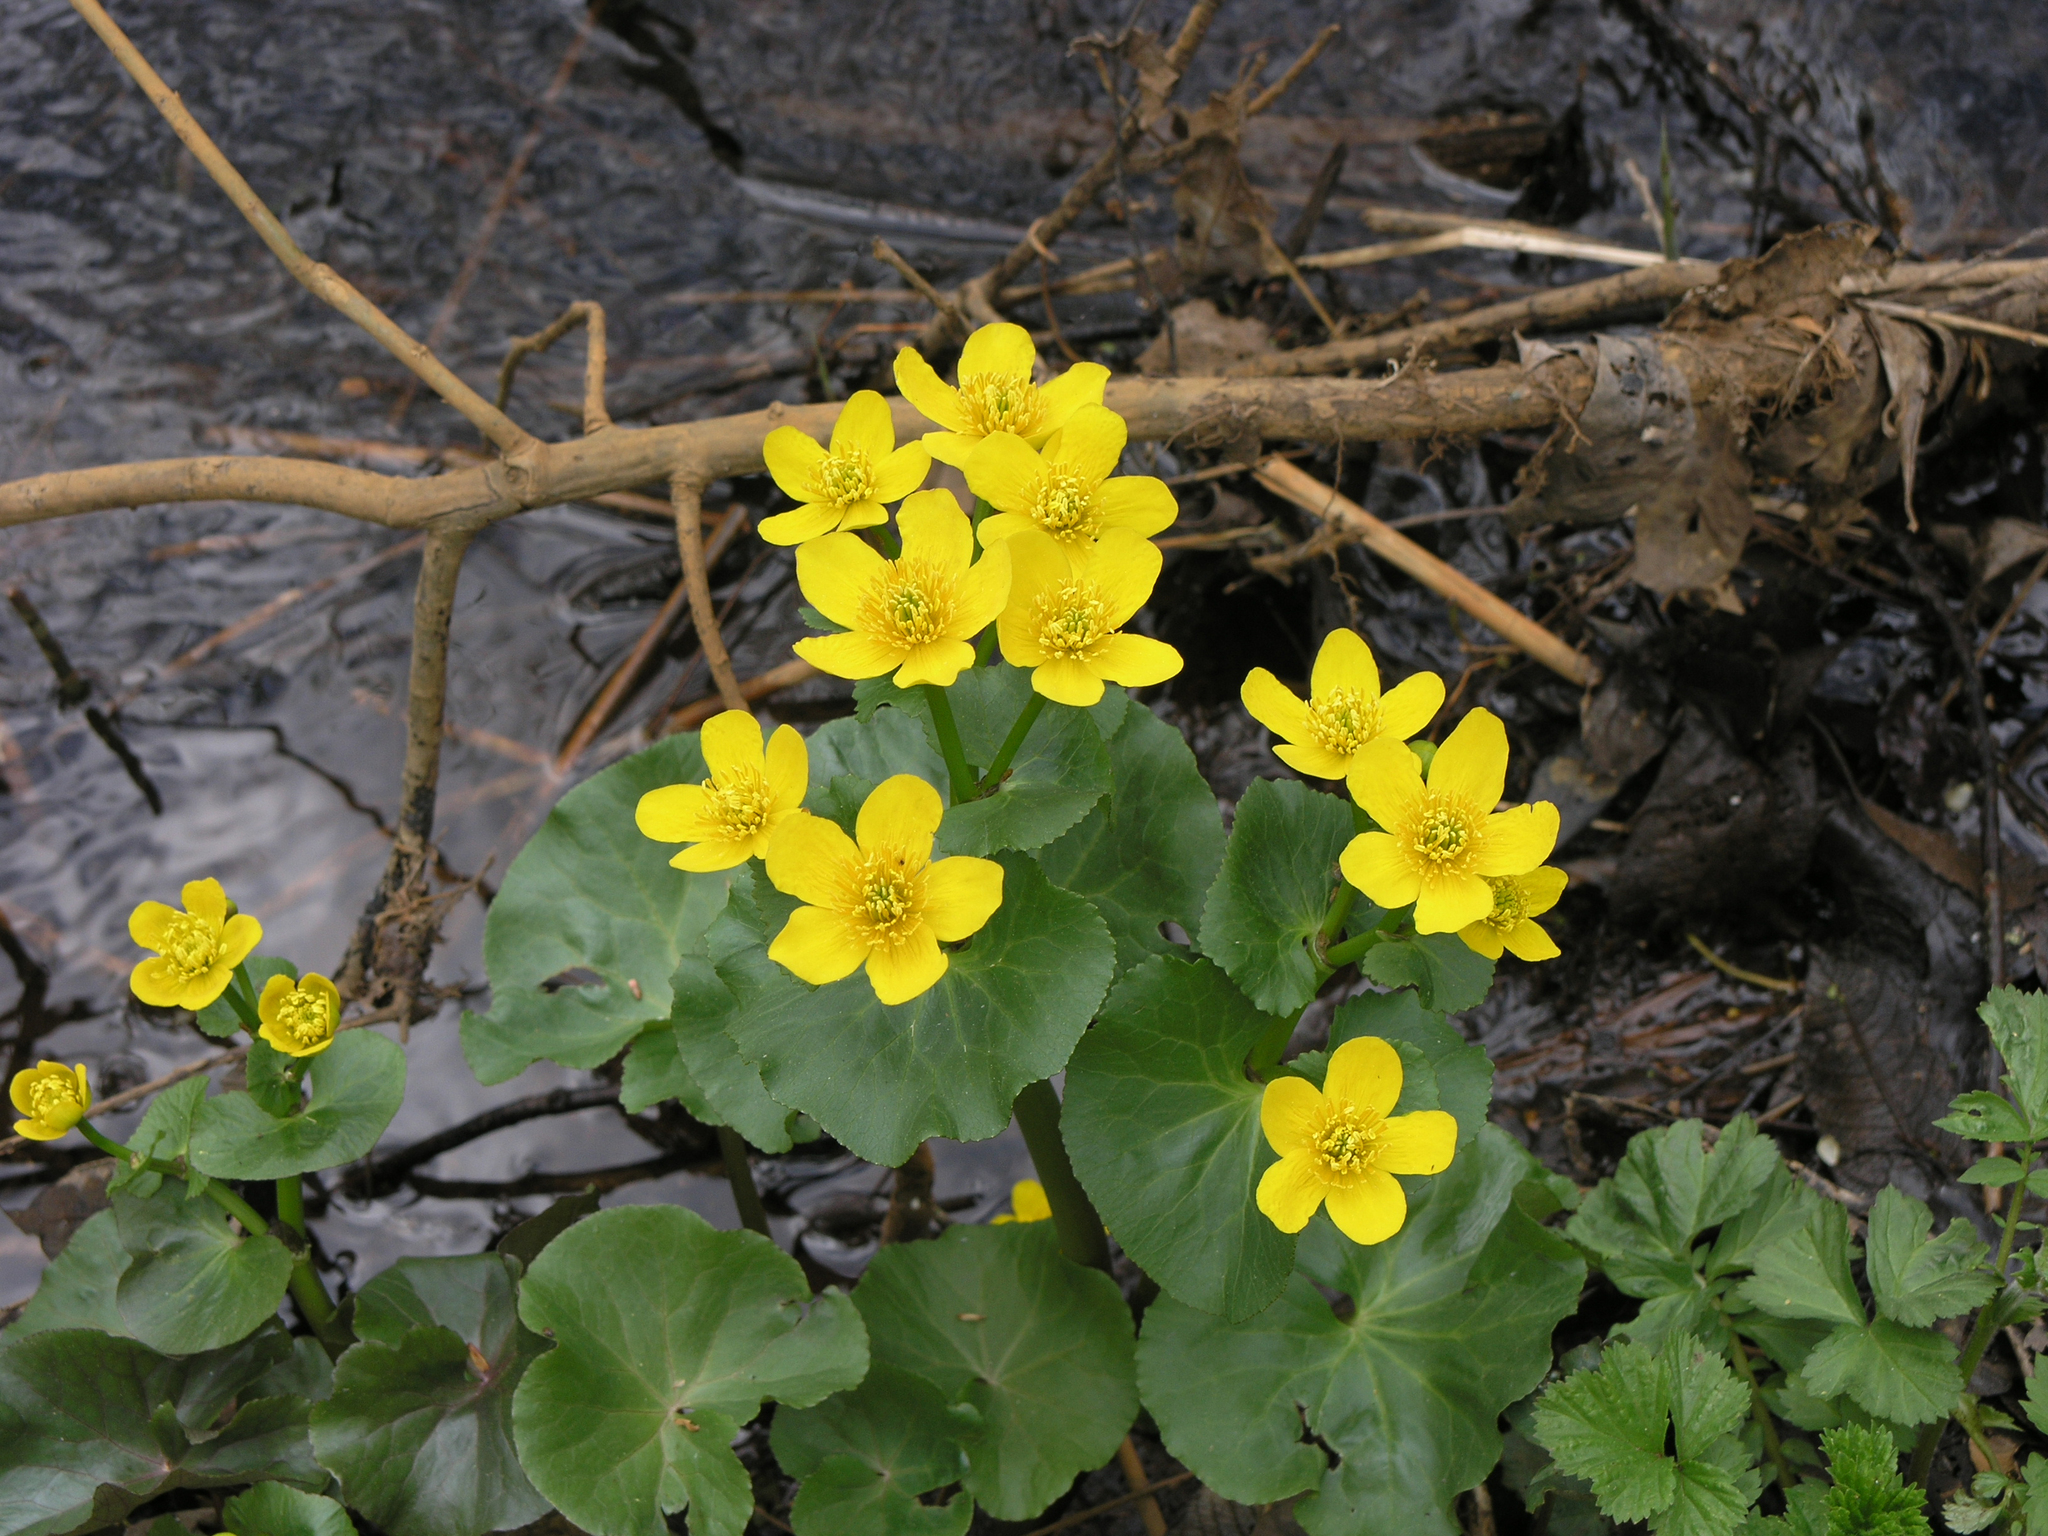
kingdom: Plantae
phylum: Tracheophyta
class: Magnoliopsida
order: Ranunculales
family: Ranunculaceae
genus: Caltha
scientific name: Caltha palustris
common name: Marsh marigold
